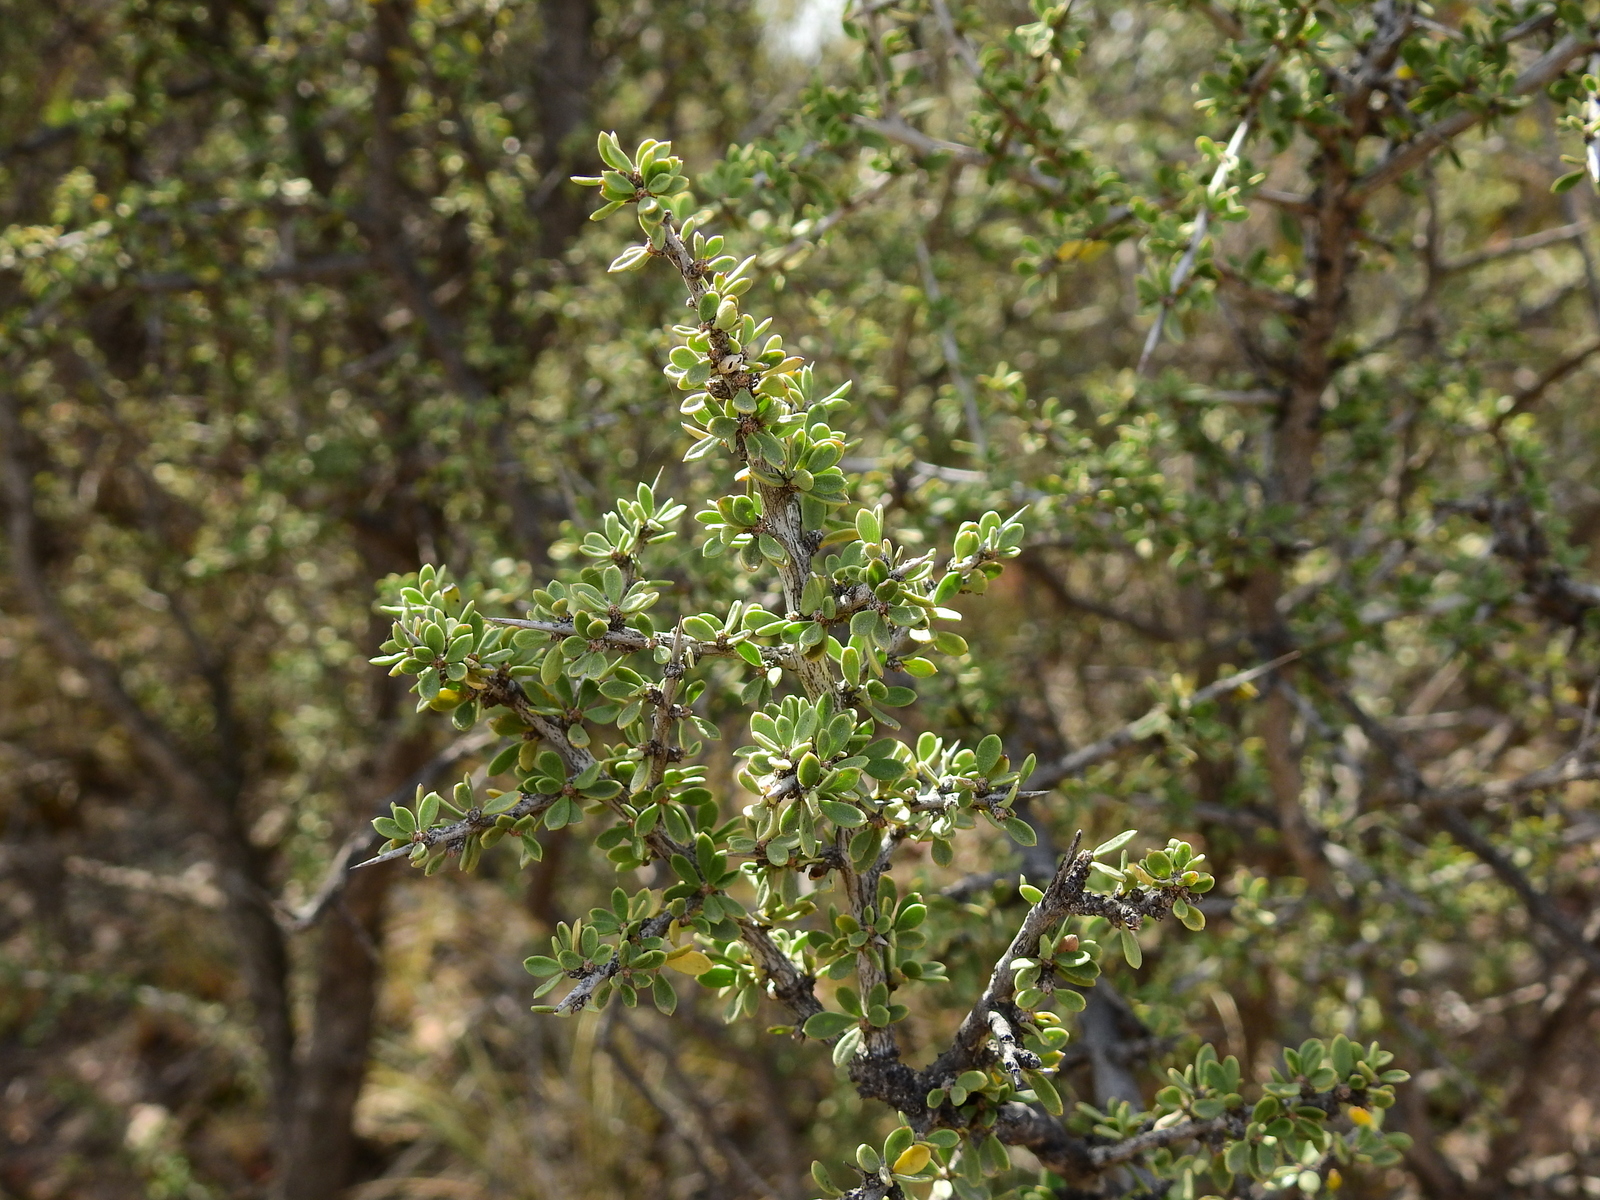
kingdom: Plantae
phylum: Tracheophyta
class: Magnoliopsida
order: Rosales
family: Rhamnaceae
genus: Condalia
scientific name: Condalia microphylla
